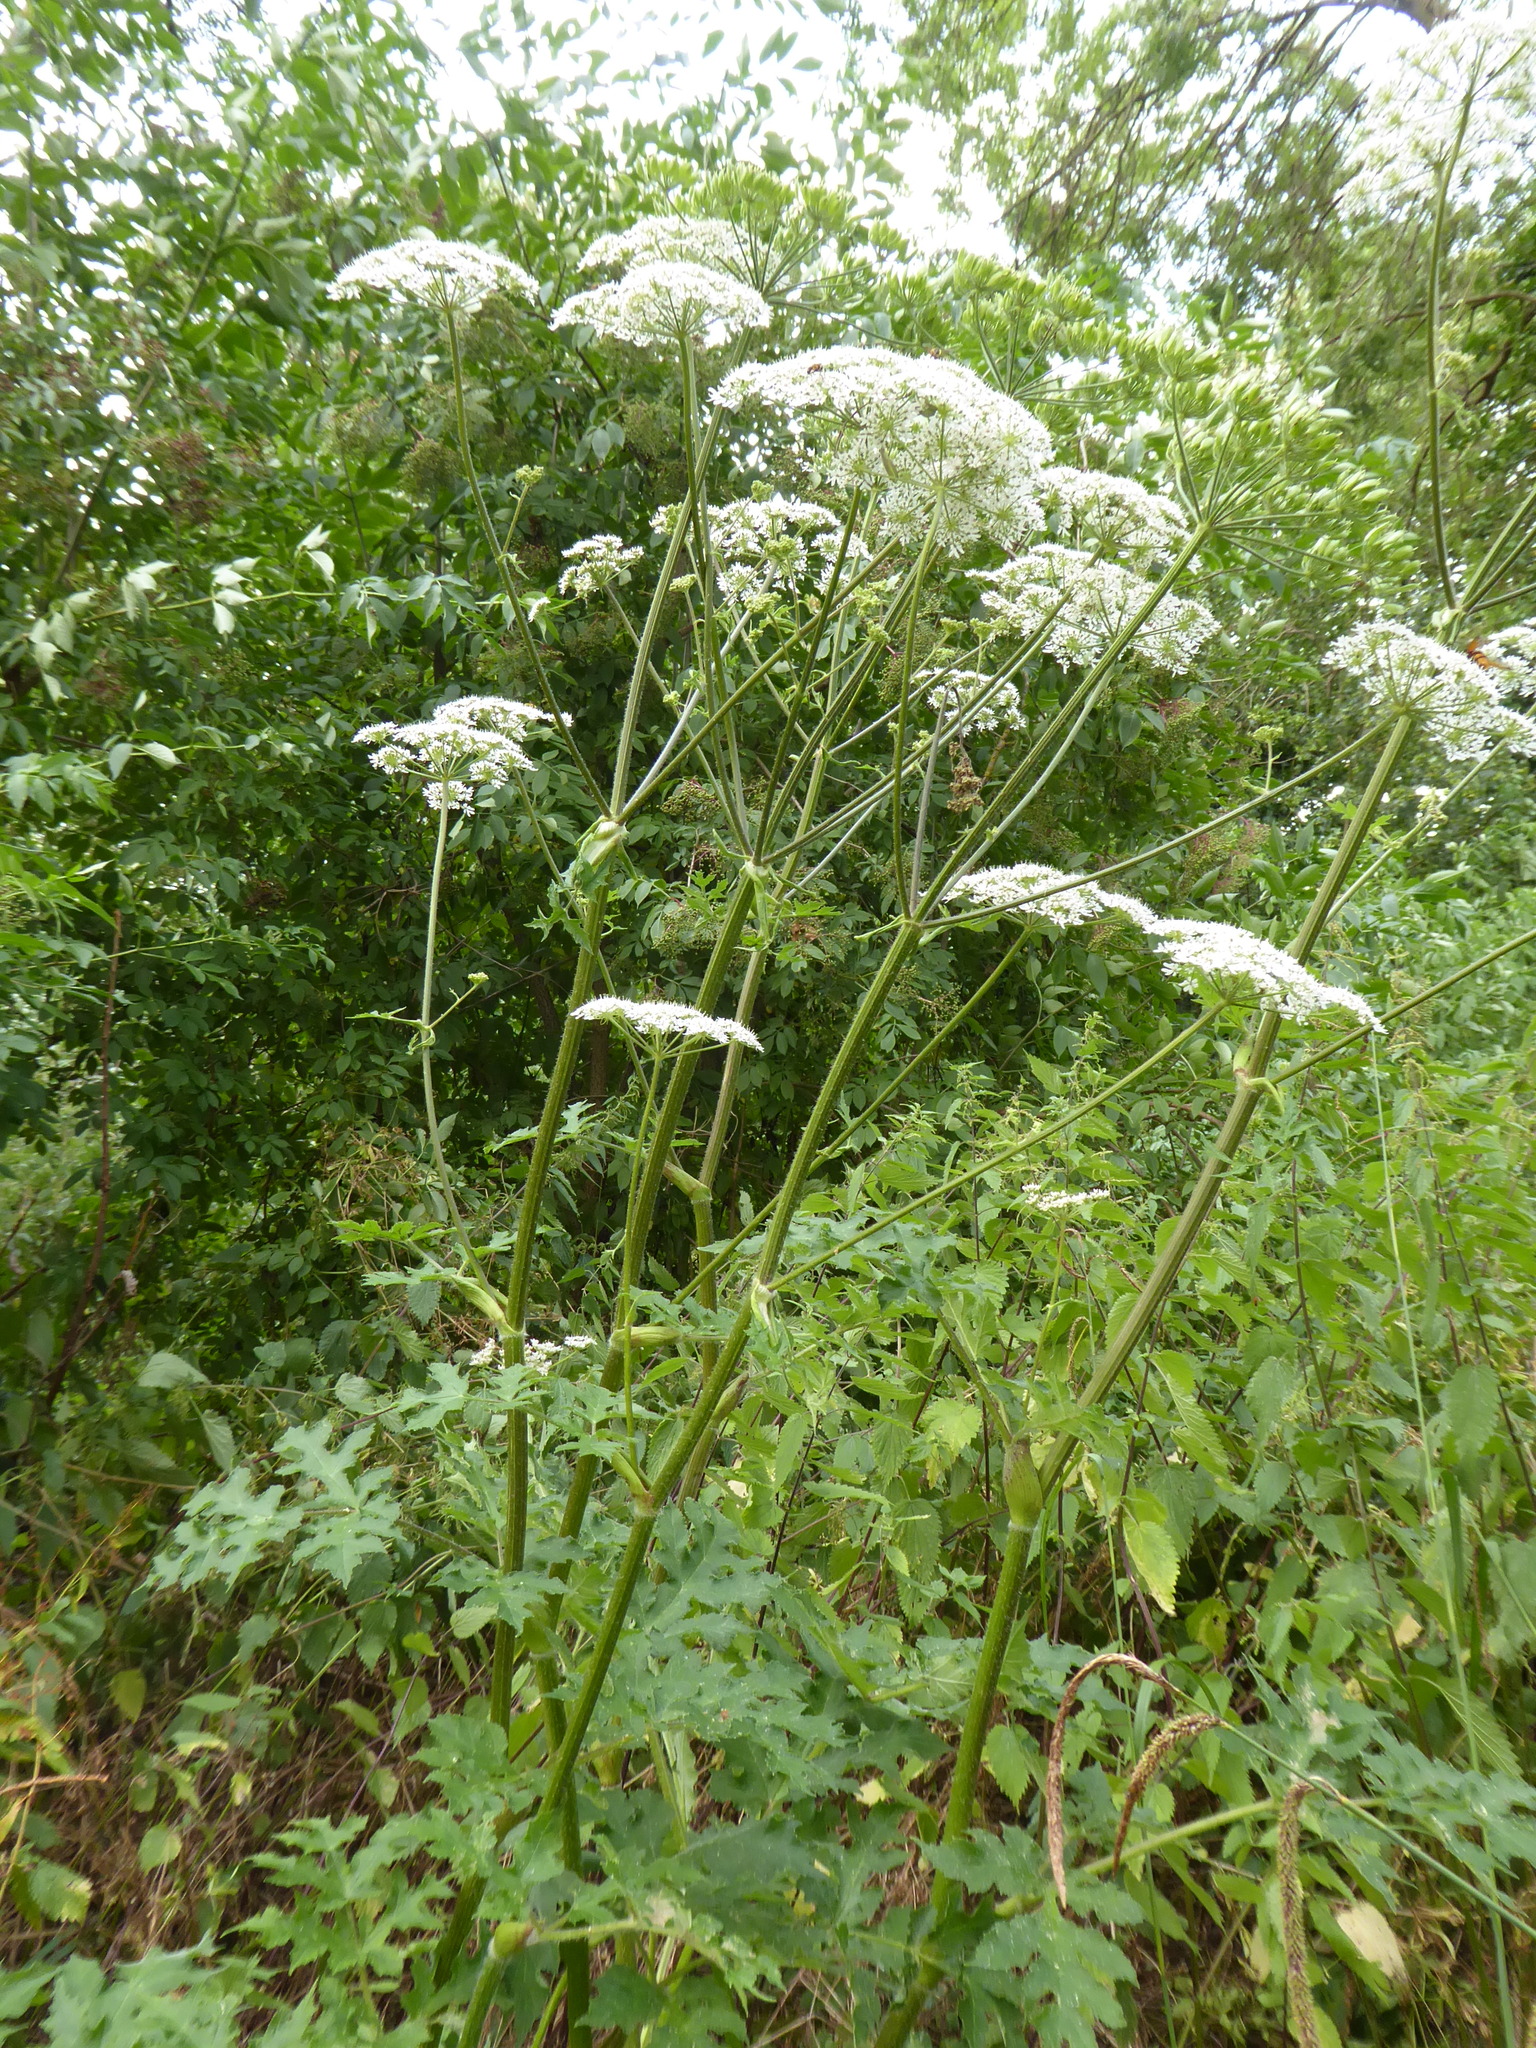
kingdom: Plantae
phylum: Tracheophyta
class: Magnoliopsida
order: Apiales
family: Apiaceae
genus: Heracleum
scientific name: Heracleum sphondylium
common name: Hogweed
